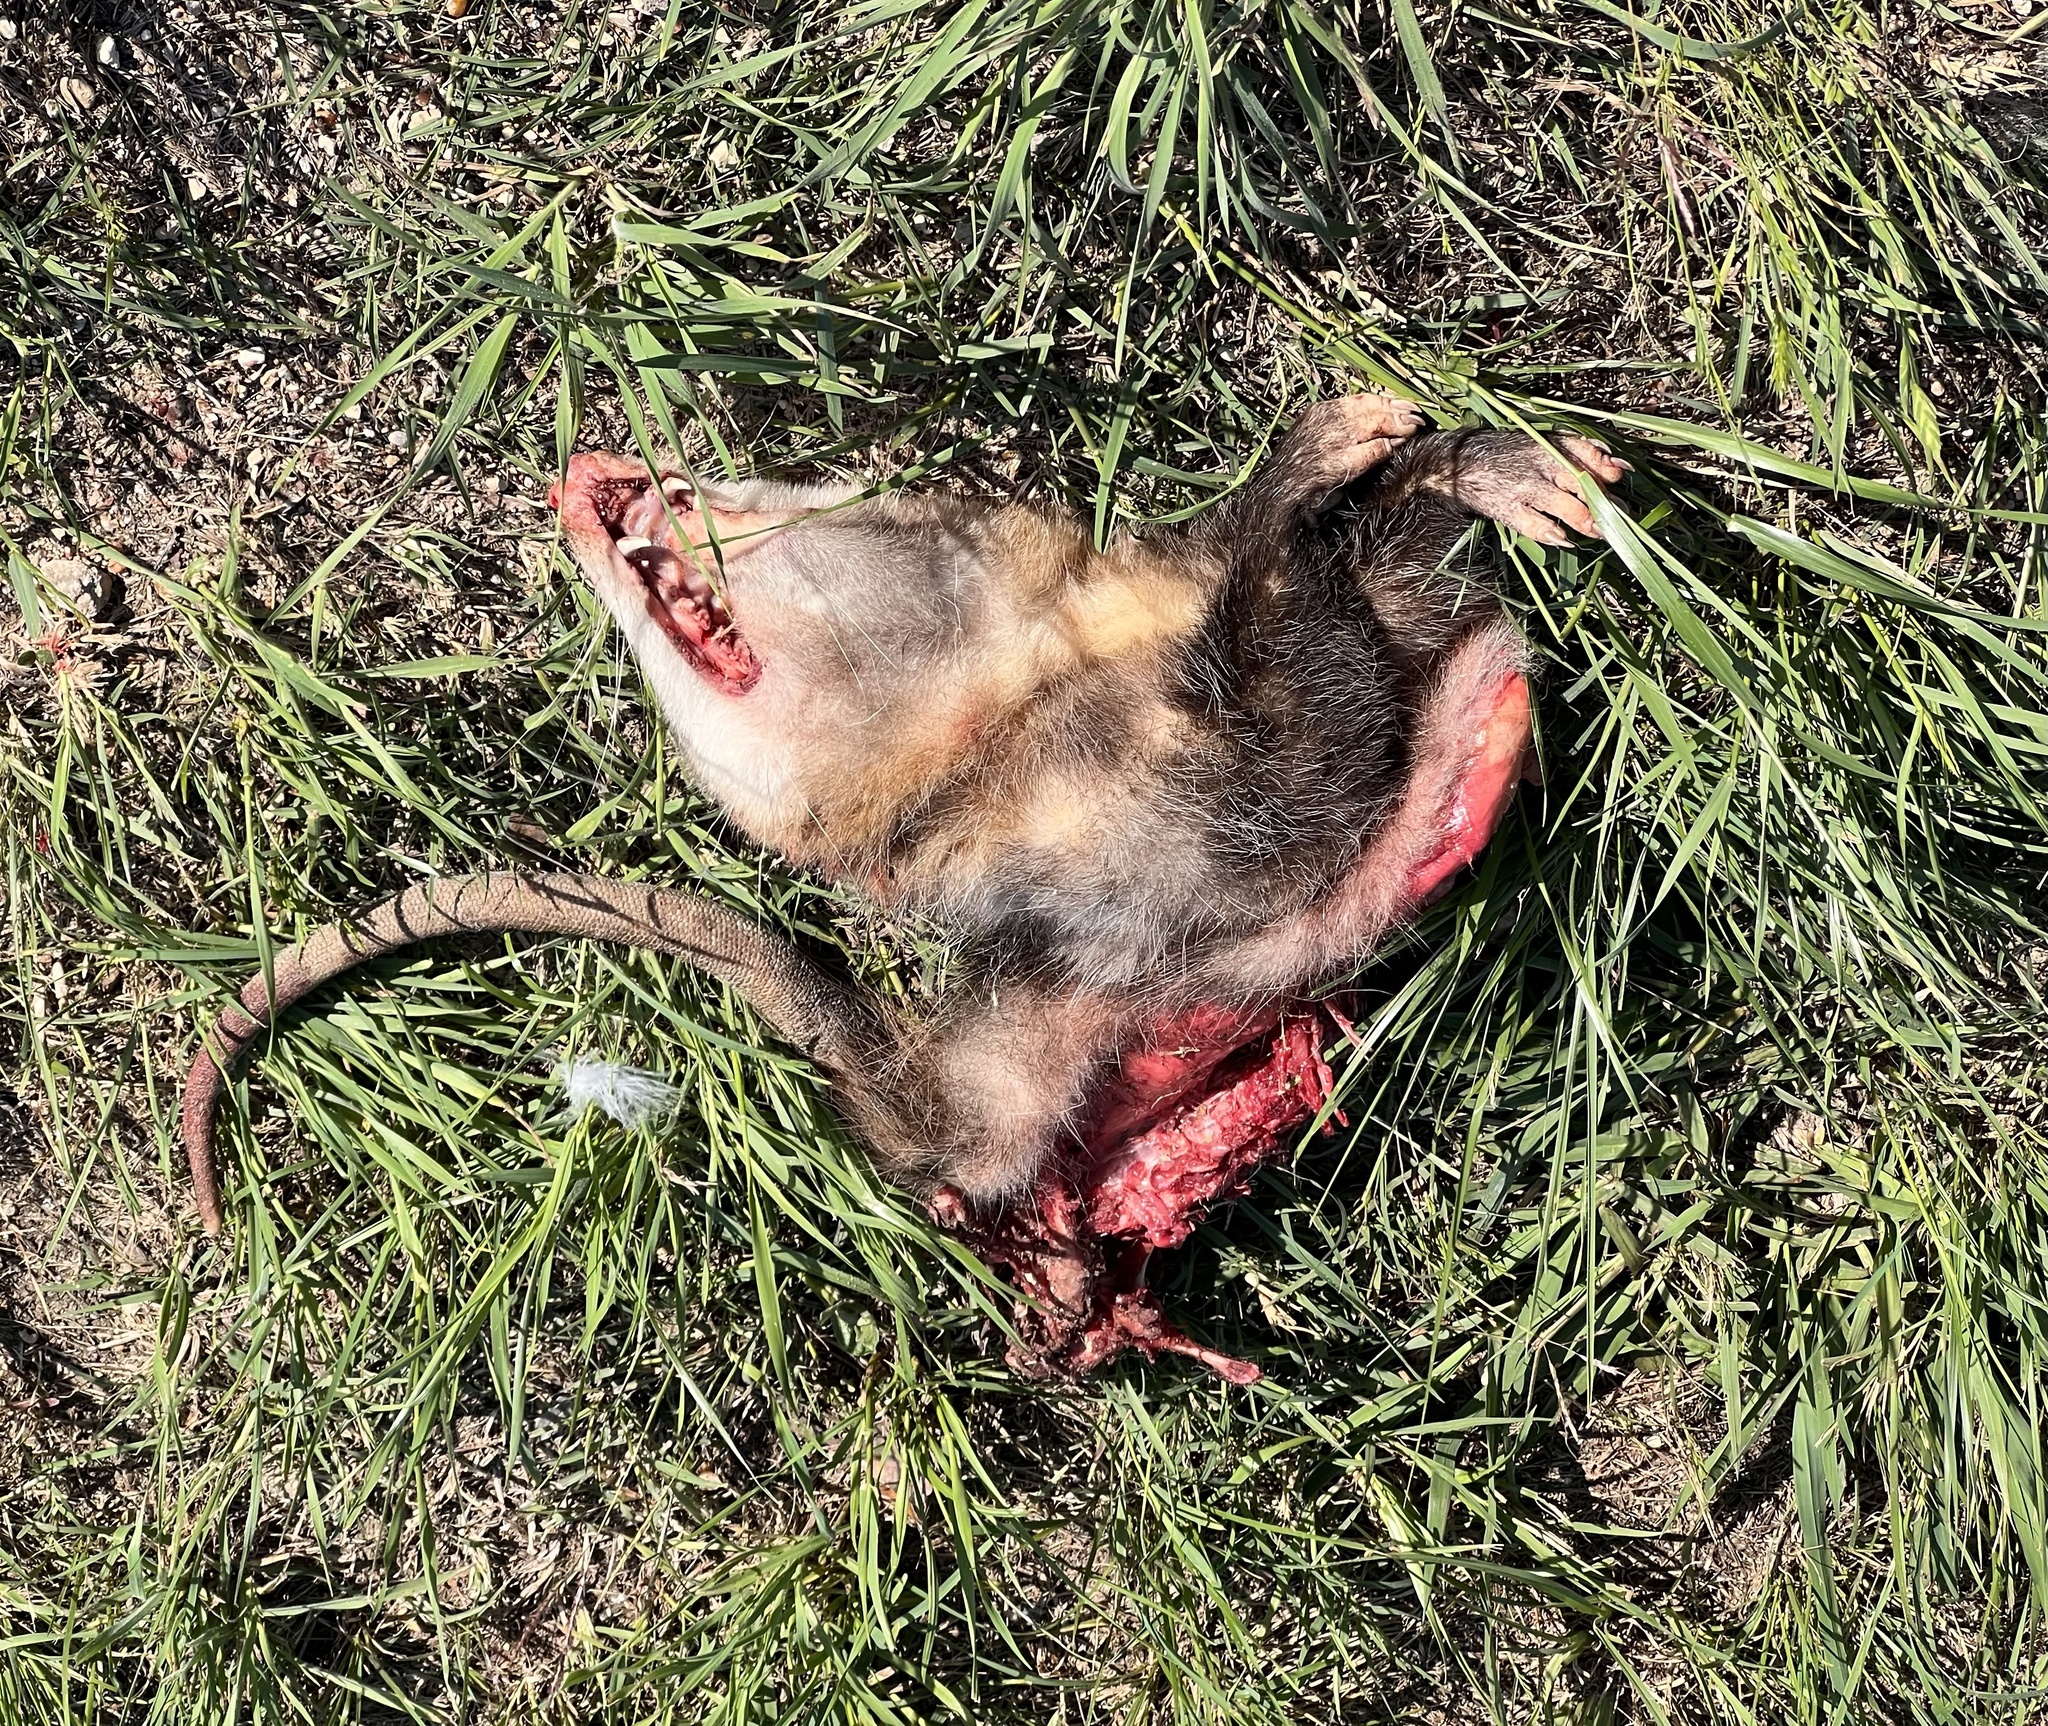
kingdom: Animalia
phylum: Chordata
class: Mammalia
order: Didelphimorphia
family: Didelphidae
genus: Didelphis
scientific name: Didelphis virginiana
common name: Virginia opossum
